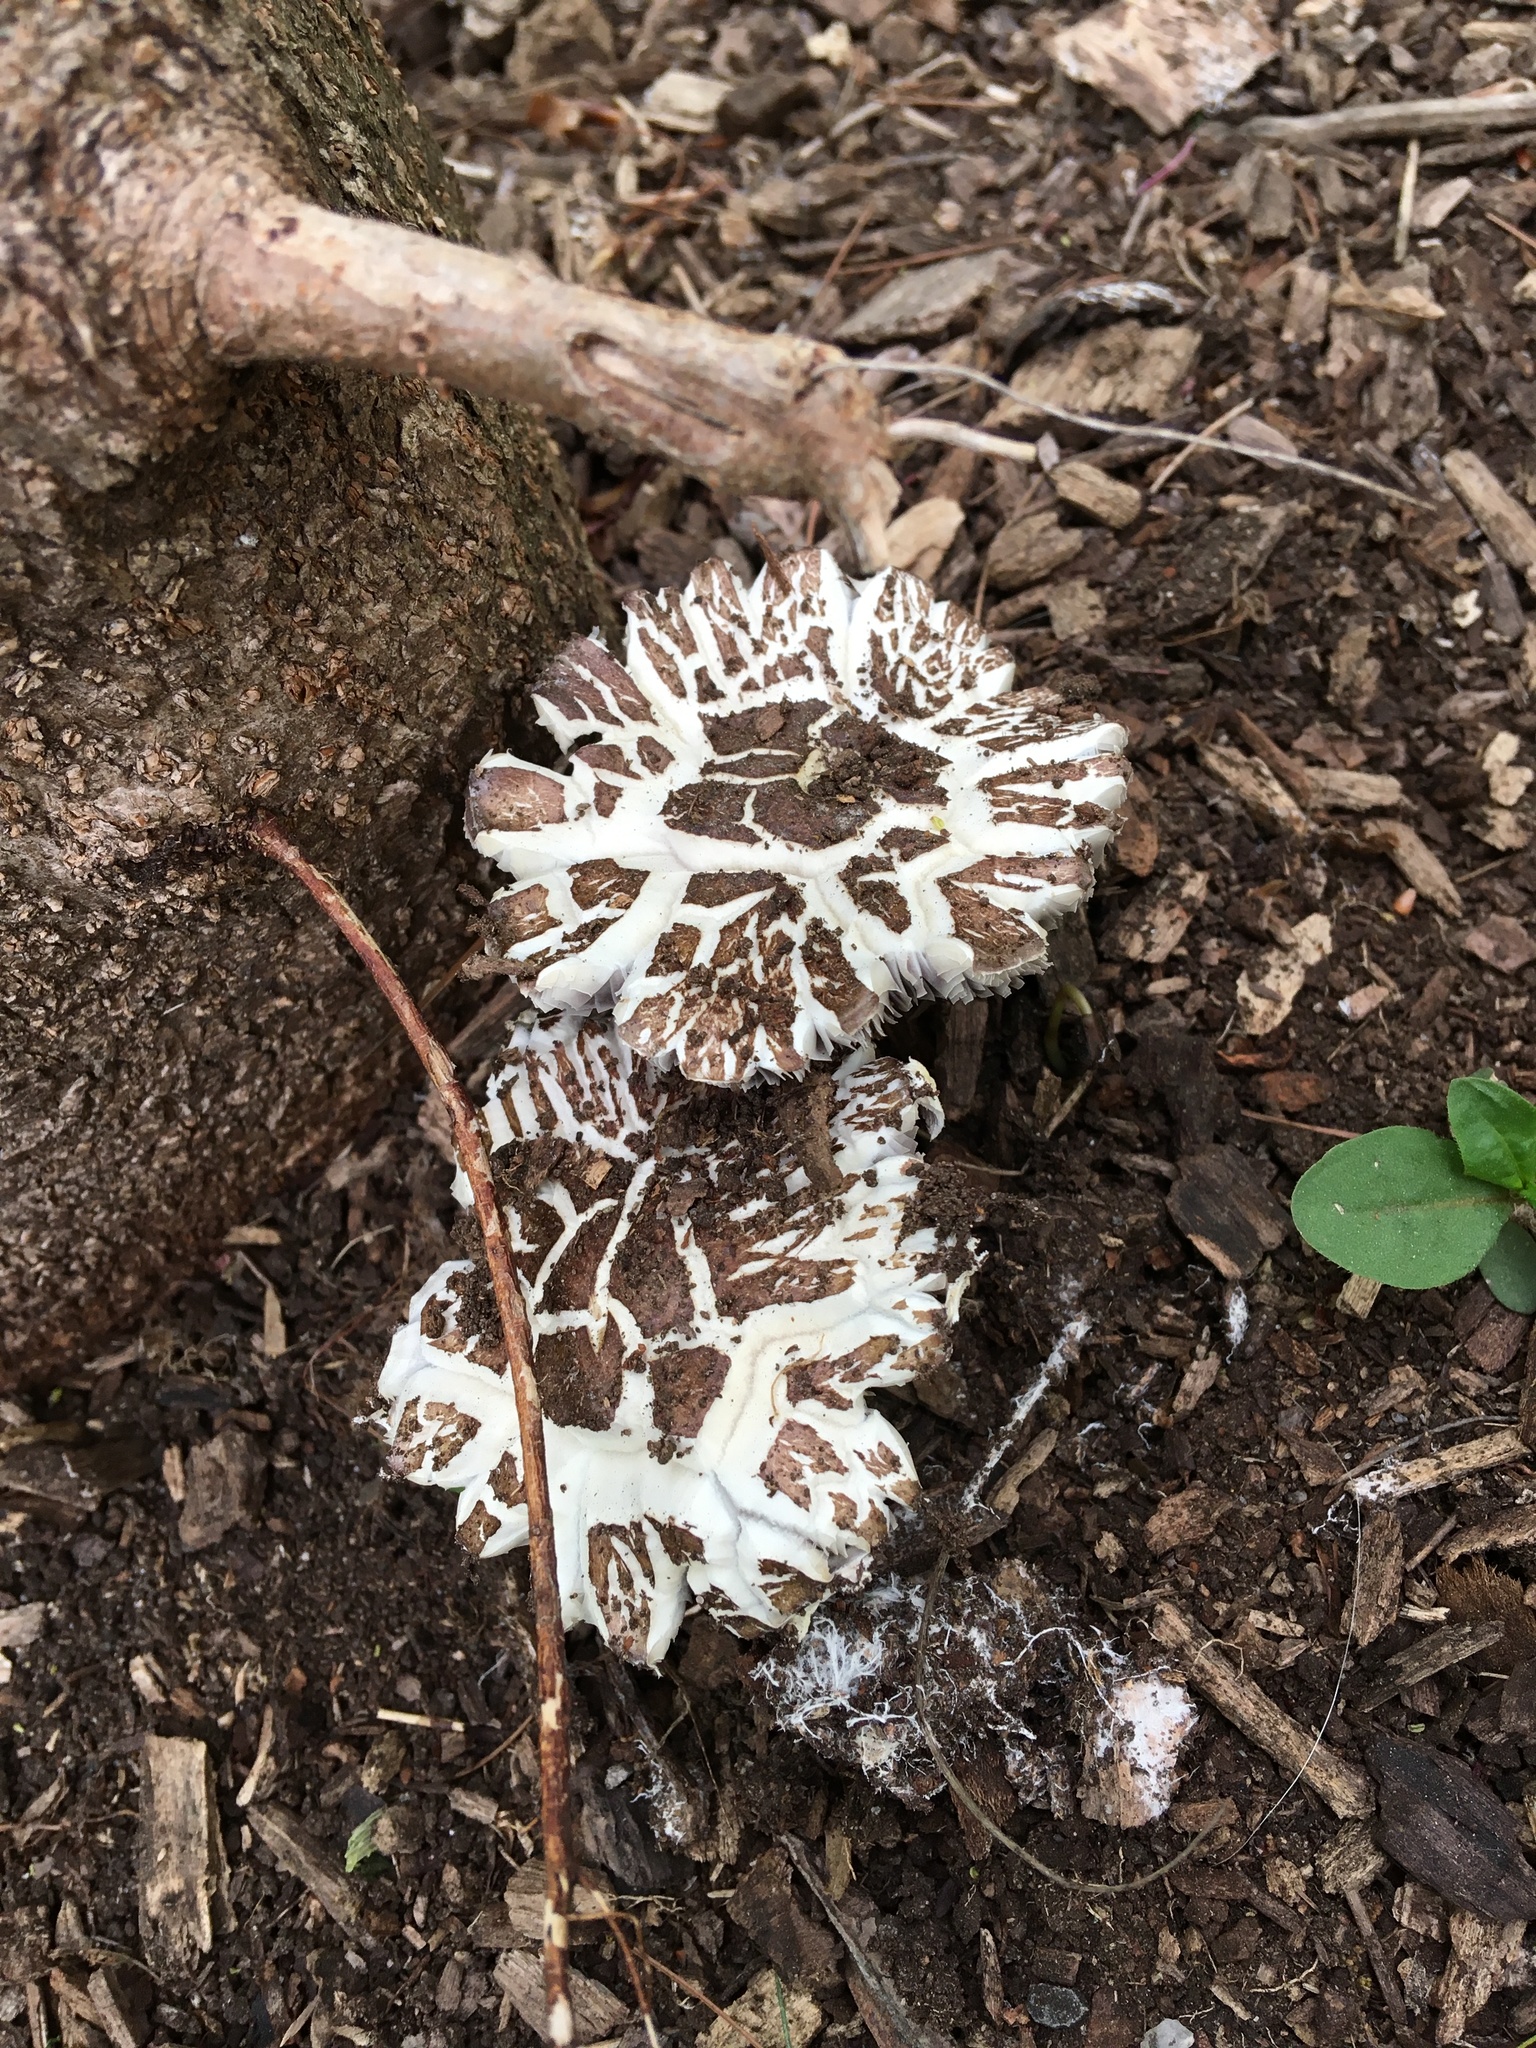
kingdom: Fungi
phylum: Basidiomycota
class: Agaricomycetes
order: Agaricales
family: Strophariaceae
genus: Stropharia
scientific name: Stropharia rugosoannulata
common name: Wine roundhead
